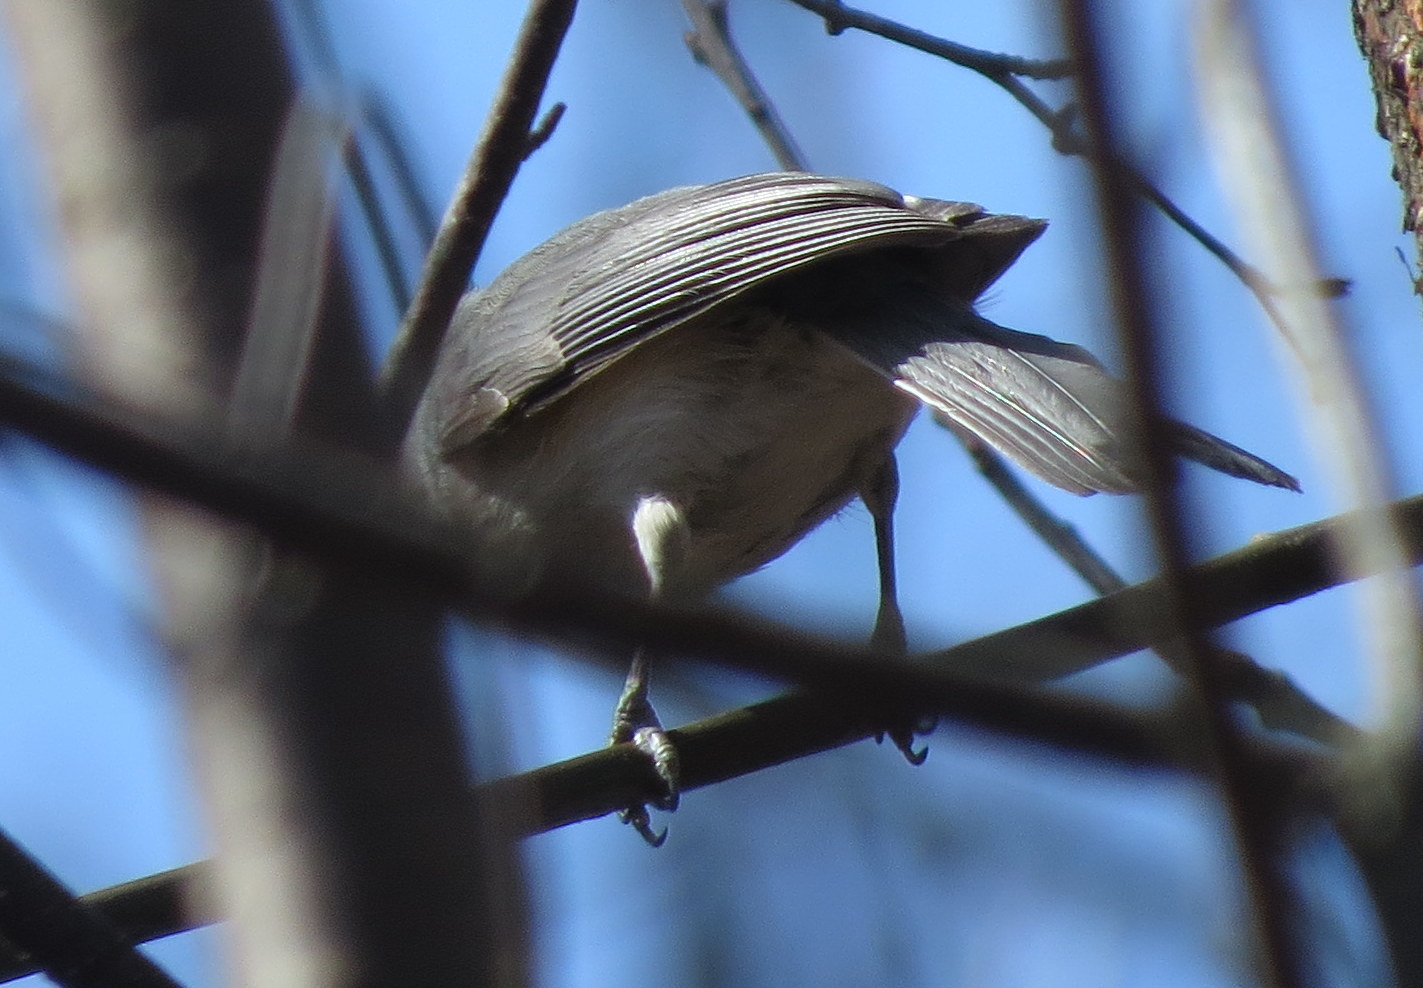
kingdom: Animalia
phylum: Chordata
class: Aves
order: Passeriformes
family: Paridae
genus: Baeolophus
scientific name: Baeolophus bicolor
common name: Tufted titmouse
